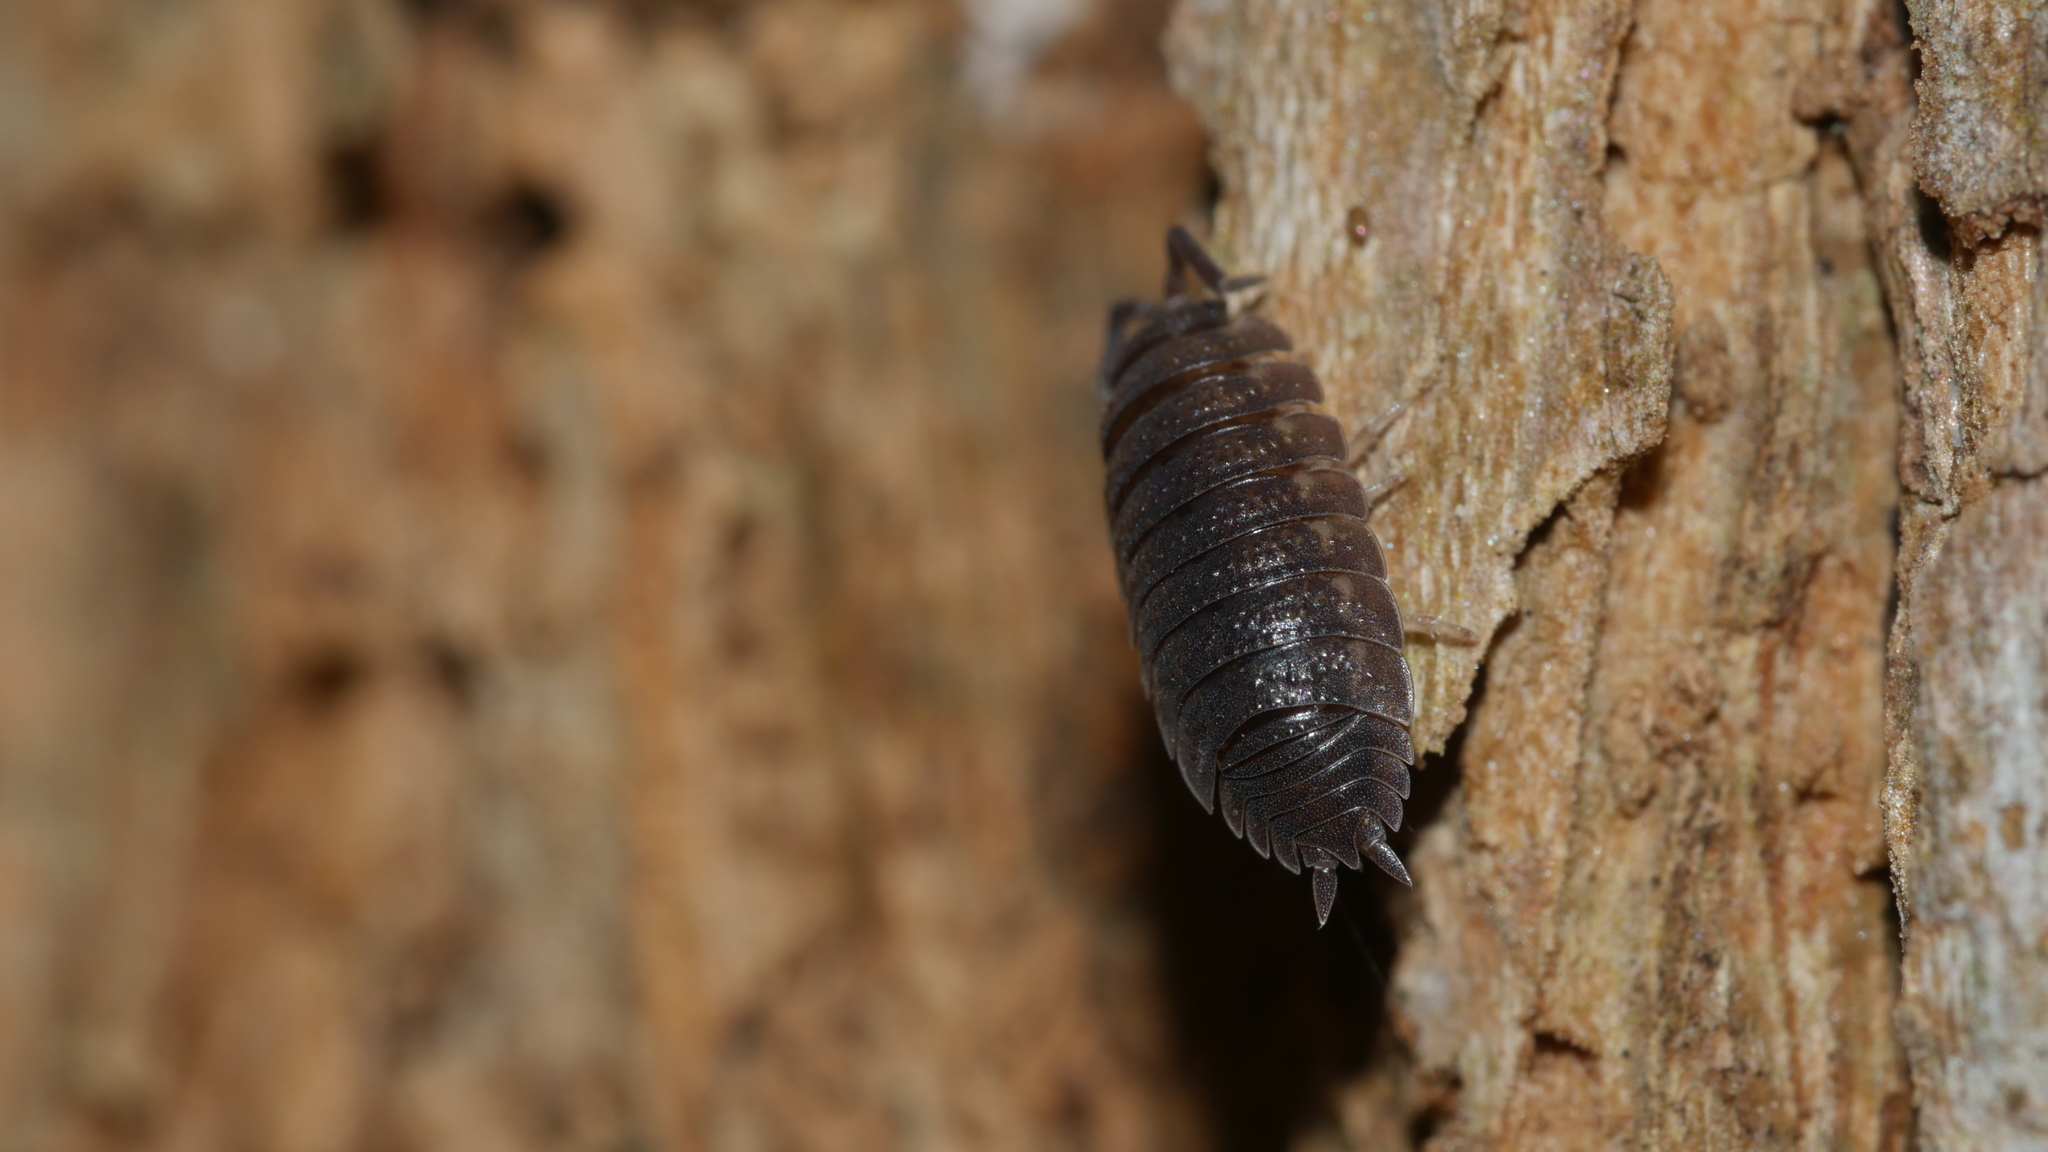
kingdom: Animalia
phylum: Arthropoda
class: Malacostraca
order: Isopoda
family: Porcellionidae
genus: Porcellio
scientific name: Porcellio scaber
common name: Common rough woodlouse
